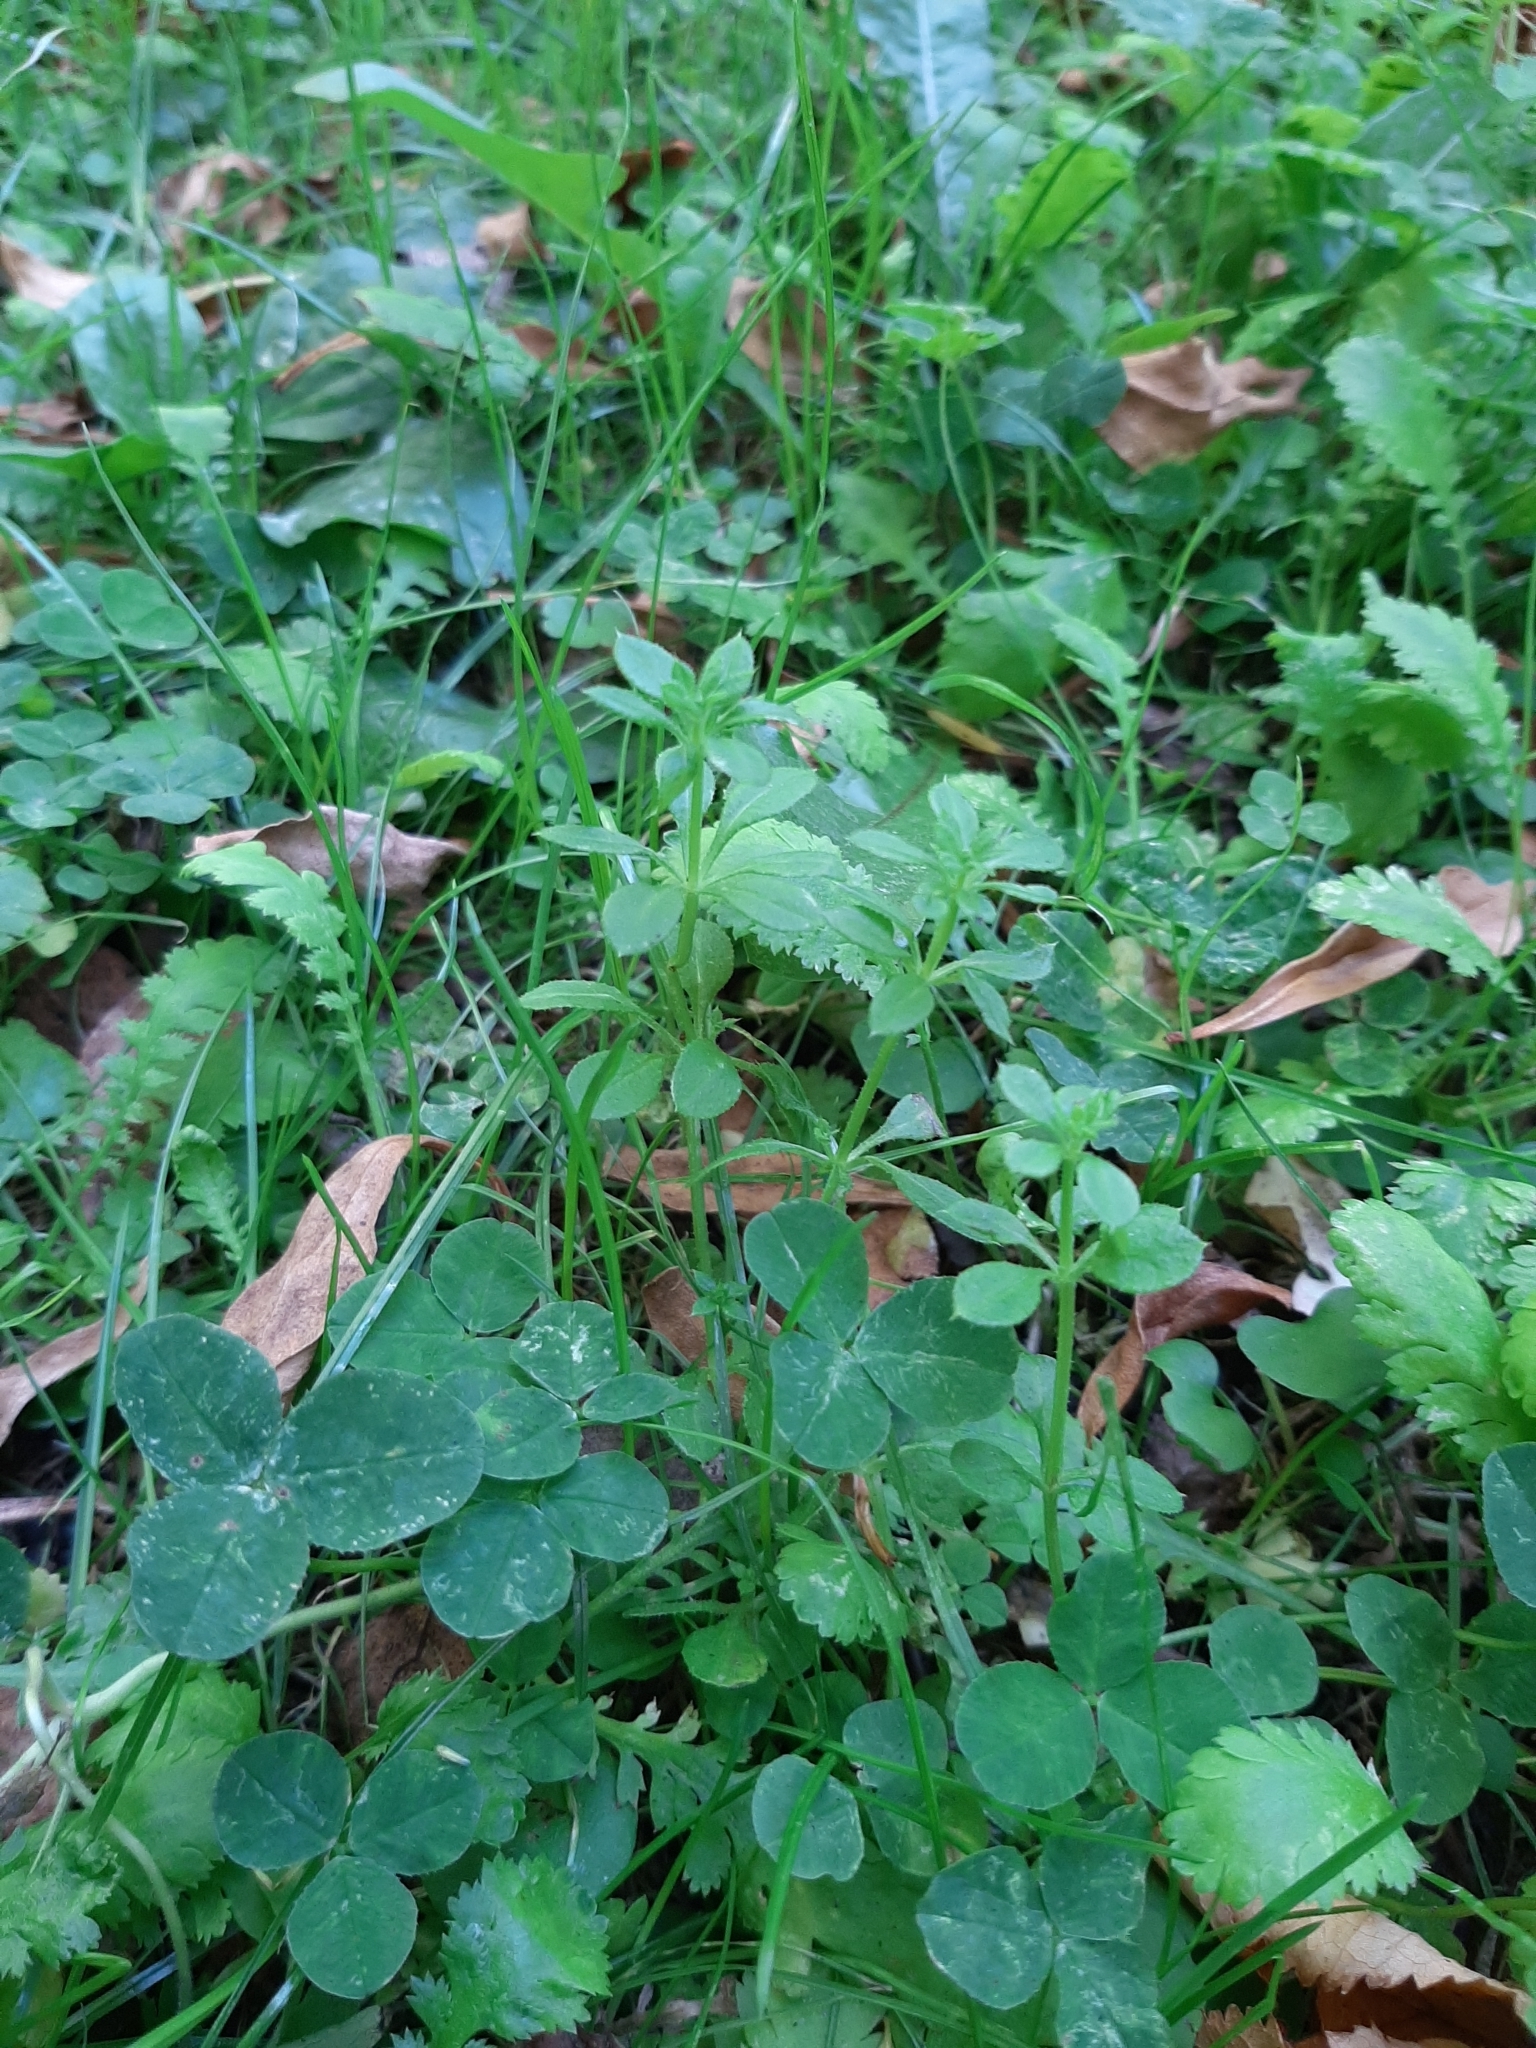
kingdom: Plantae
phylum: Tracheophyta
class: Magnoliopsida
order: Gentianales
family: Rubiaceae
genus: Galium
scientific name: Galium aparine
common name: Cleavers
